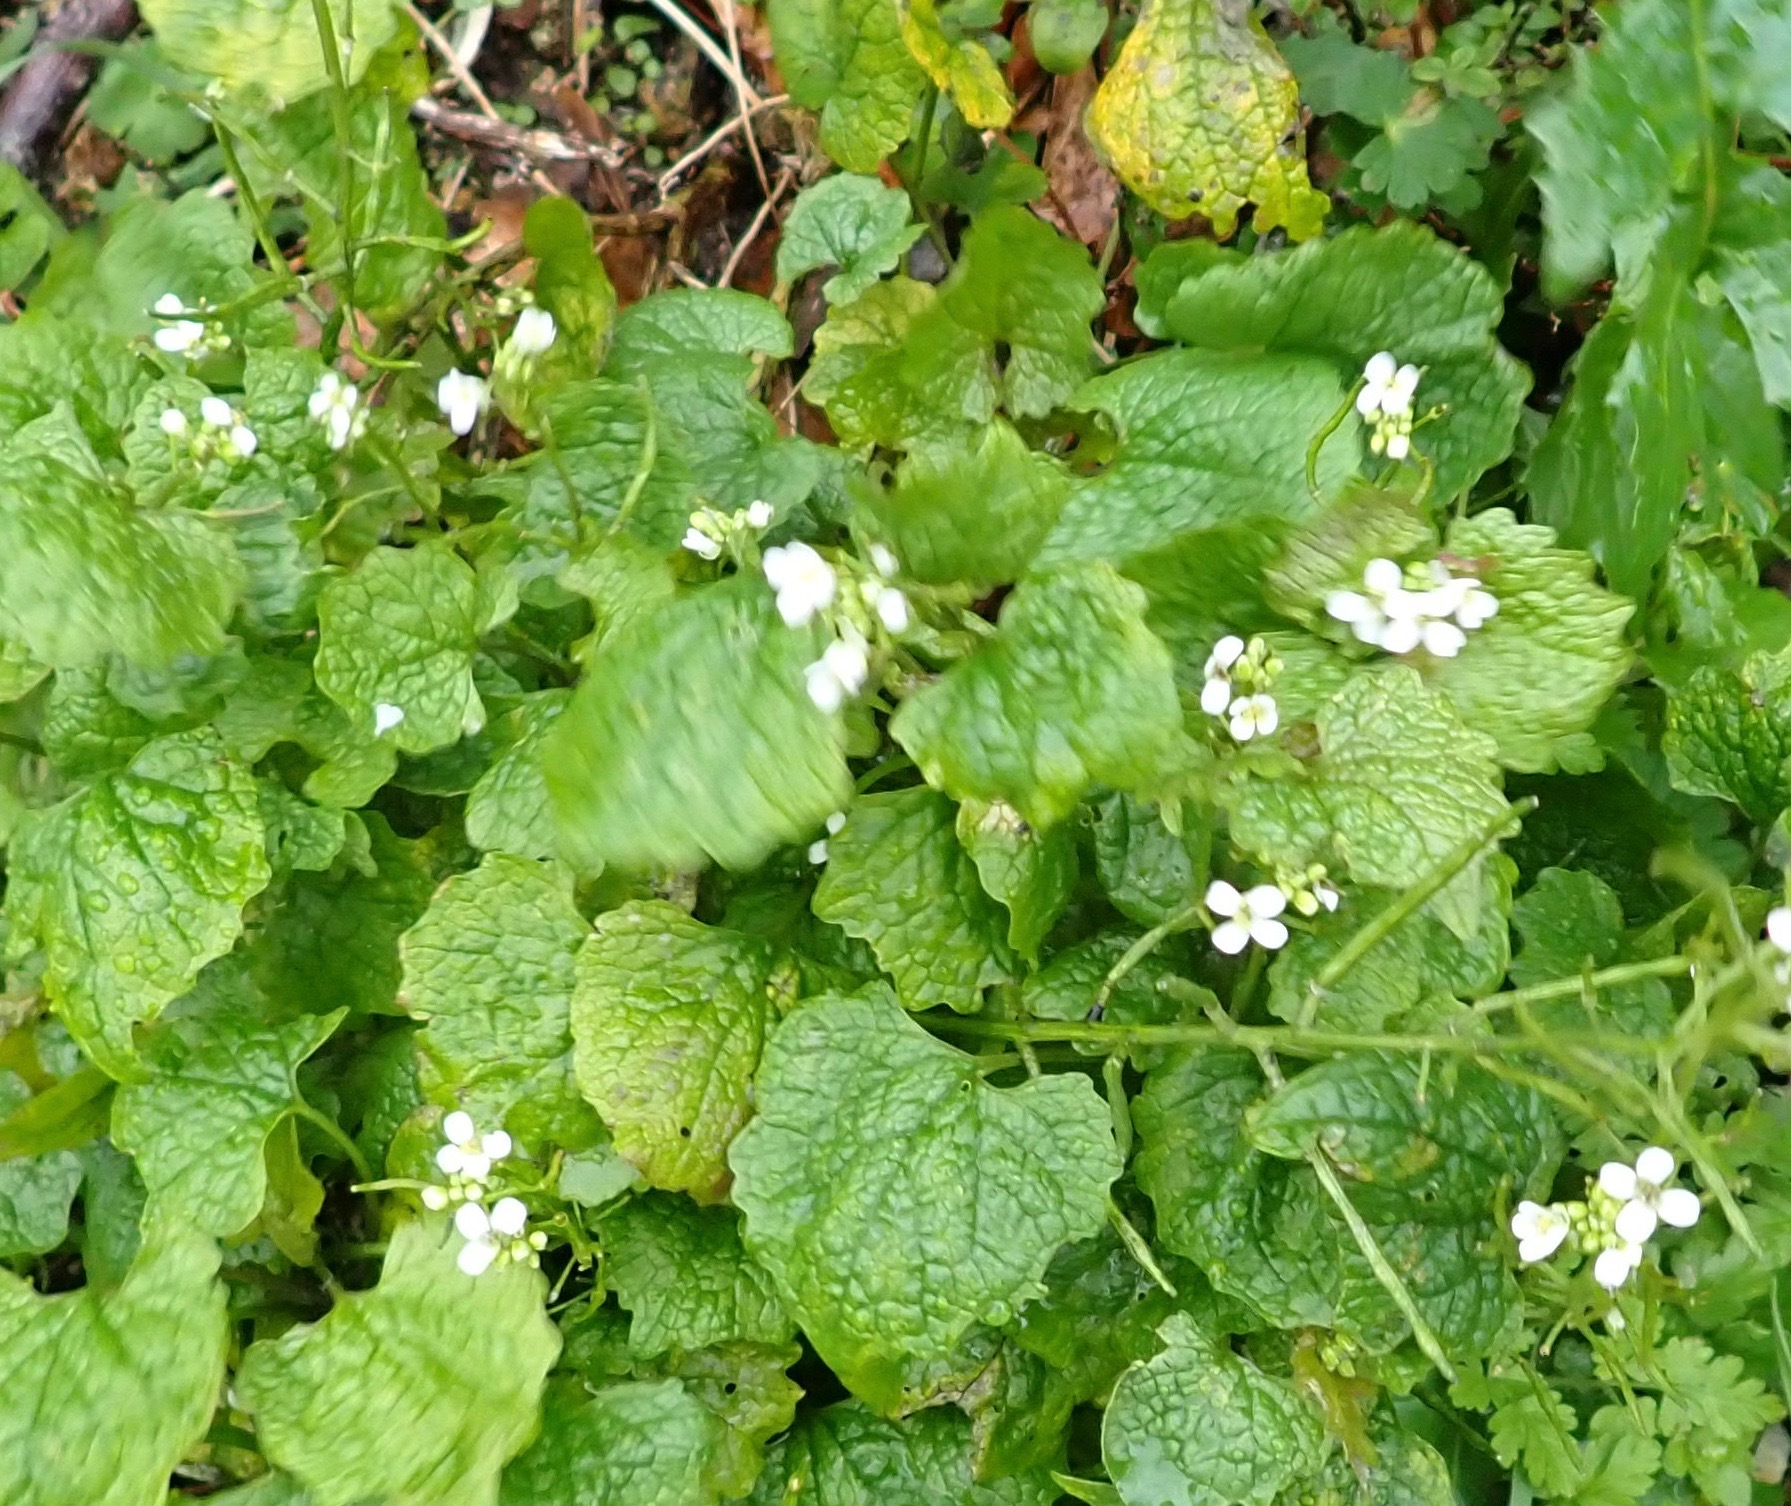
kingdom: Plantae
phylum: Tracheophyta
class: Magnoliopsida
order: Brassicales
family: Brassicaceae
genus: Alliaria
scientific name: Alliaria petiolata
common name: Garlic mustard
